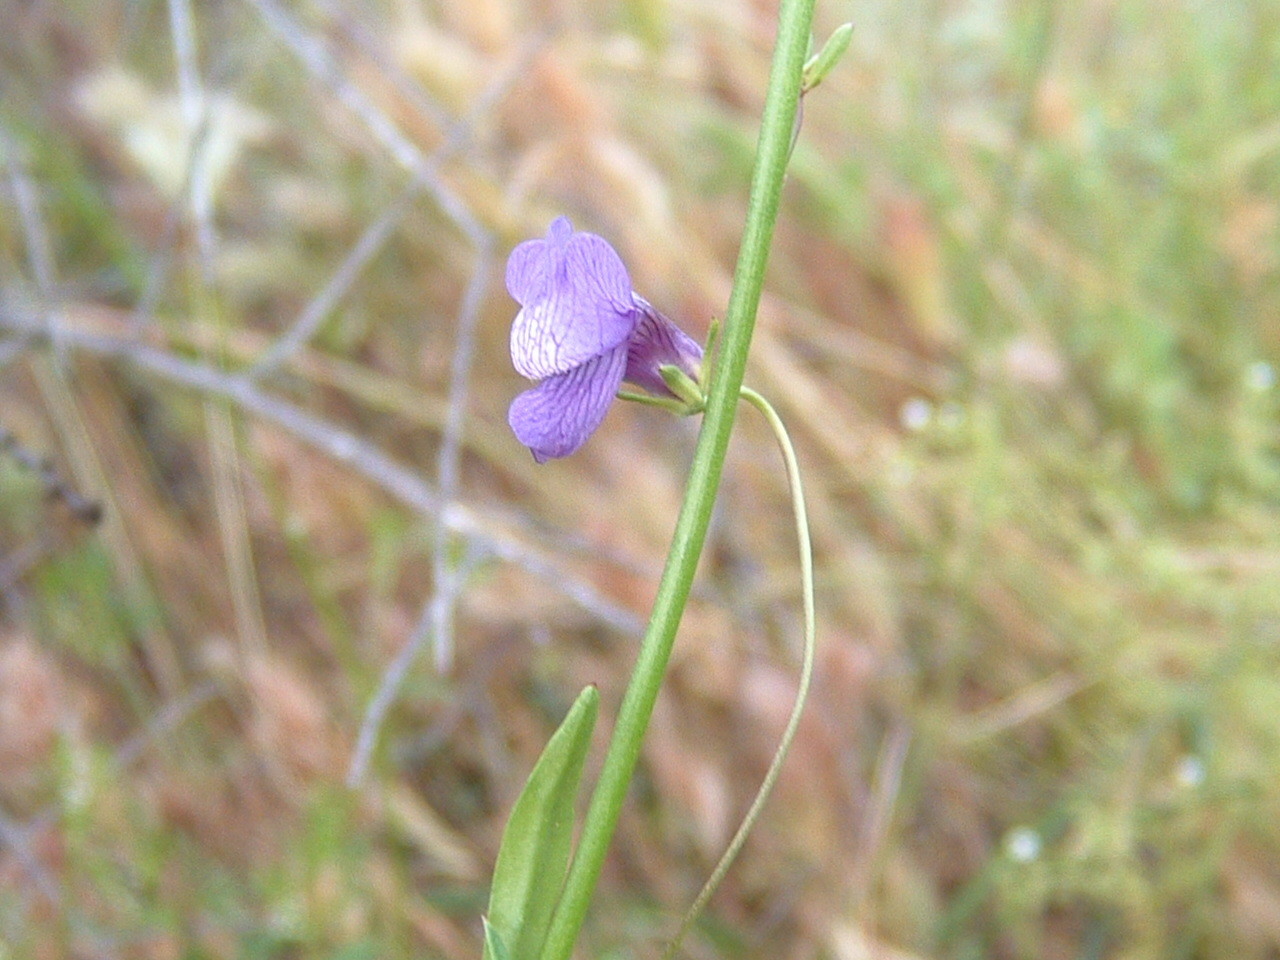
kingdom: Plantae
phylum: Tracheophyta
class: Magnoliopsida
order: Lamiales
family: Plantaginaceae
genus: Neogaerrhinum
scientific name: Neogaerrhinum strictum
